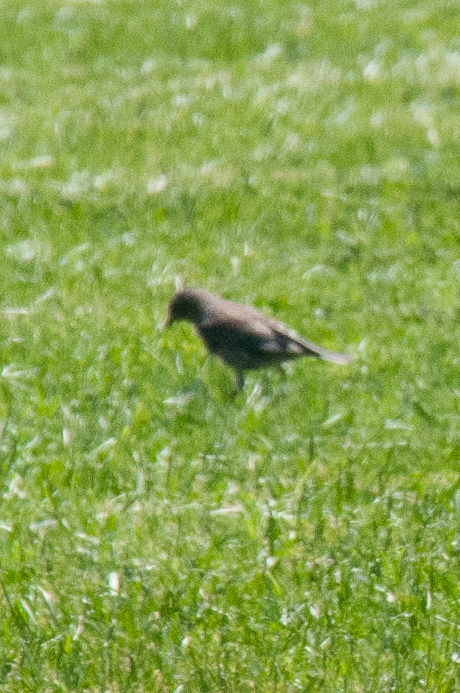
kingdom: Animalia
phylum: Chordata
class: Aves
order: Passeriformes
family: Turdidae
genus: Catharus
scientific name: Catharus guttatus
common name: Hermit thrush
